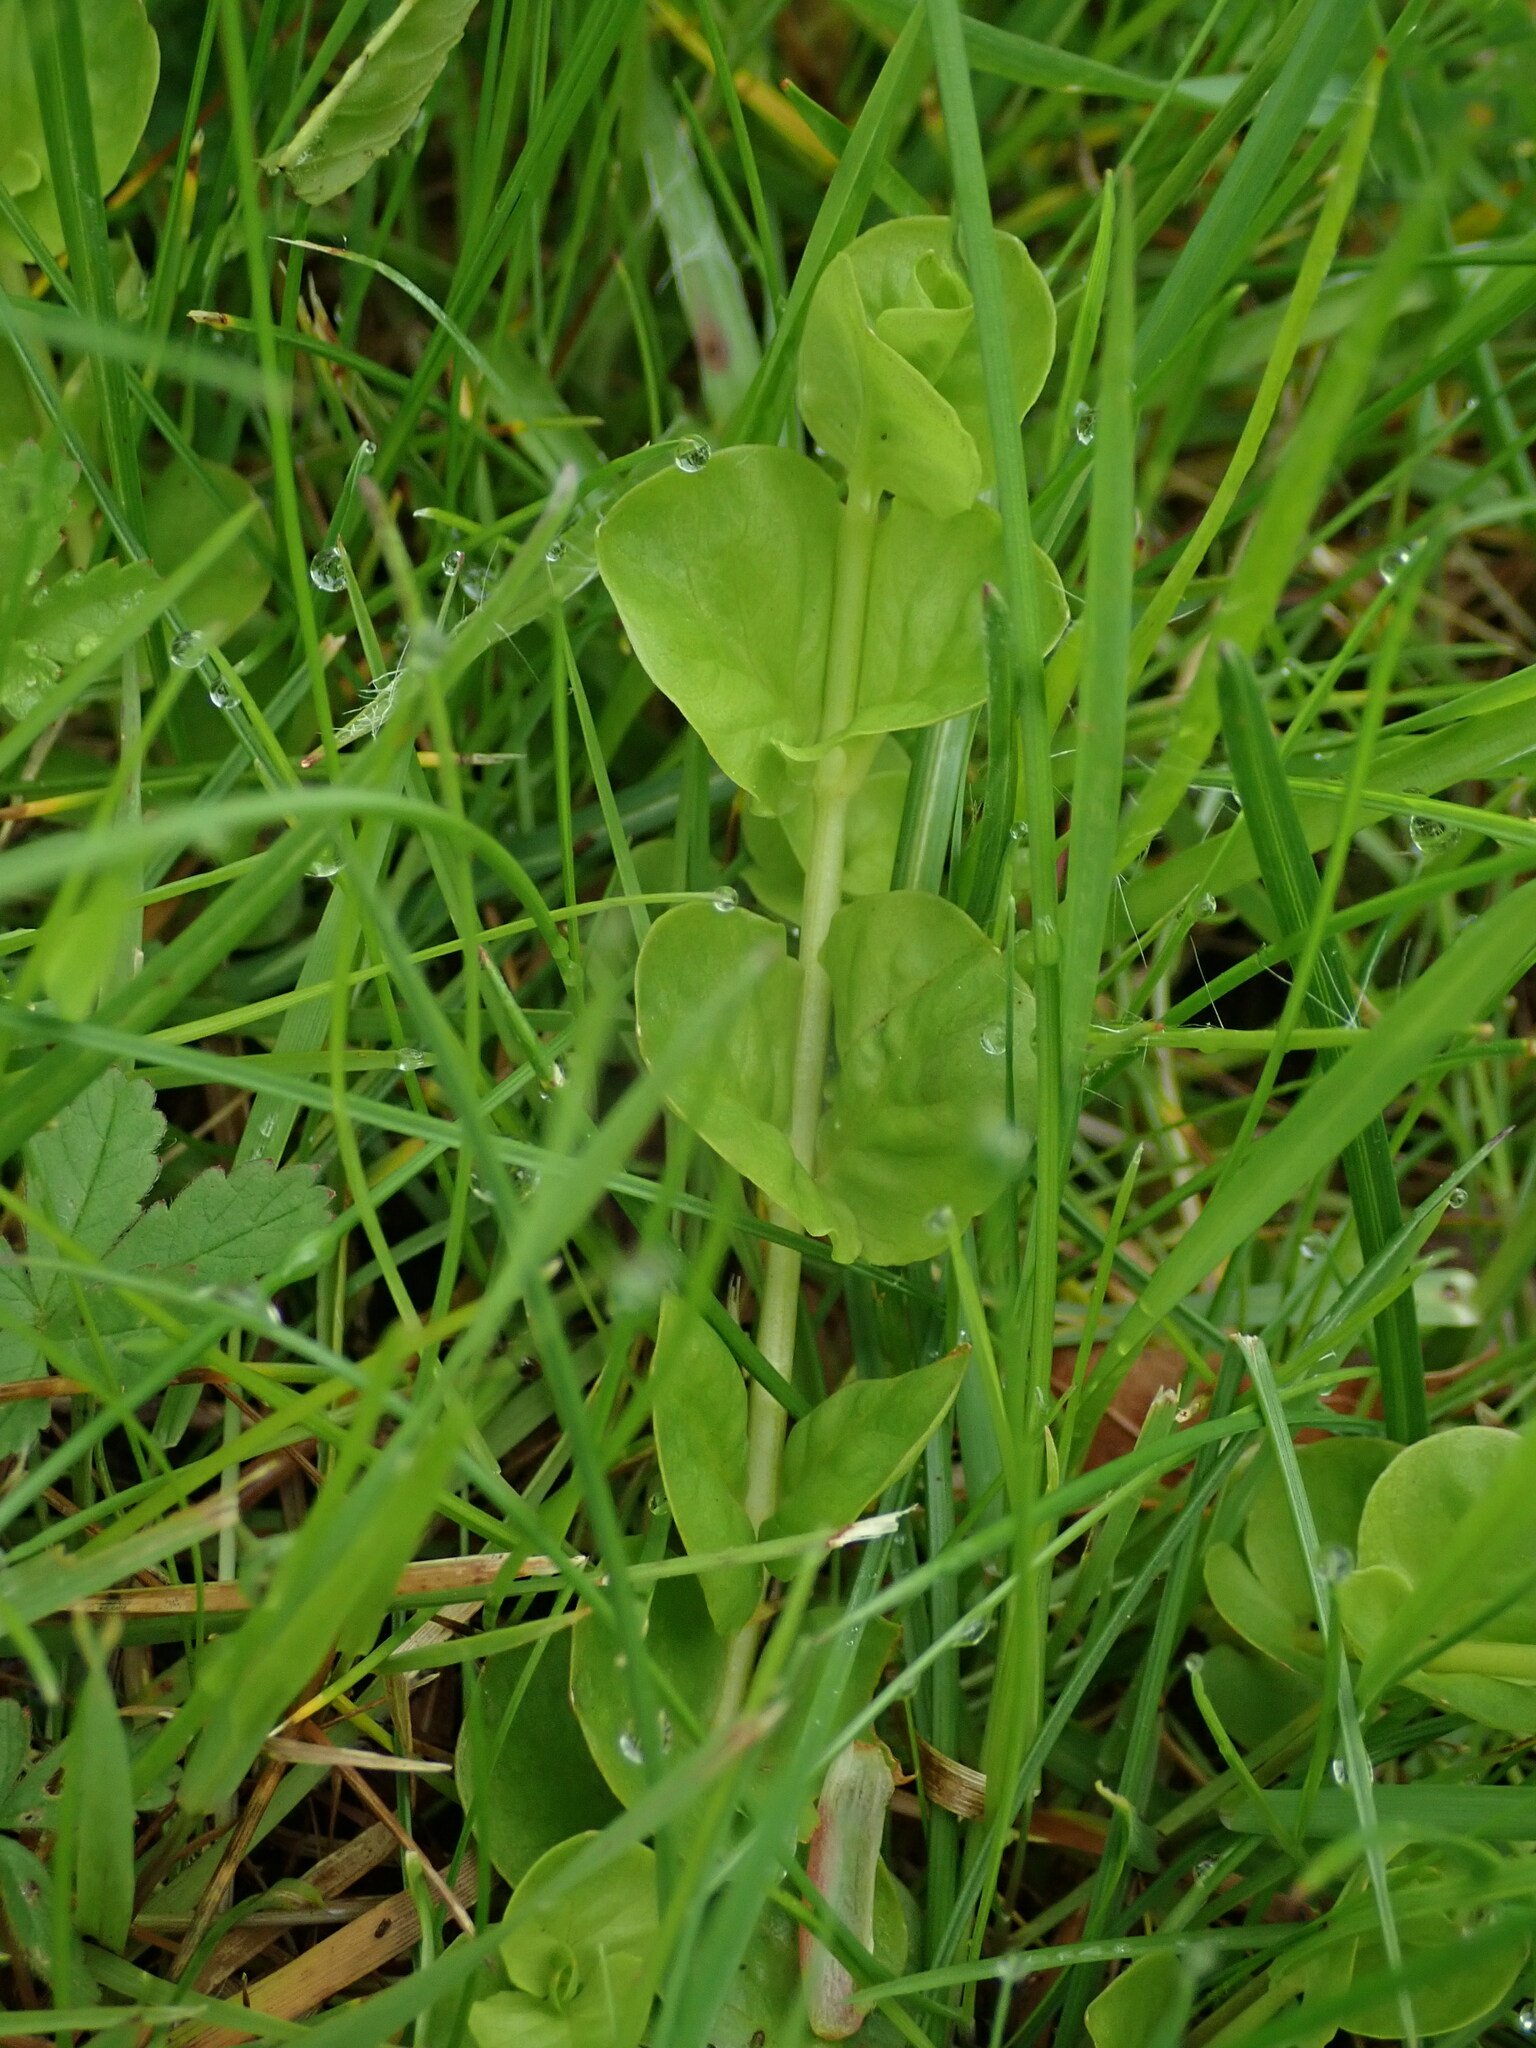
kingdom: Plantae
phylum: Tracheophyta
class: Magnoliopsida
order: Ericales
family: Primulaceae
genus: Lysimachia
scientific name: Lysimachia nummularia
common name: Moneywort
